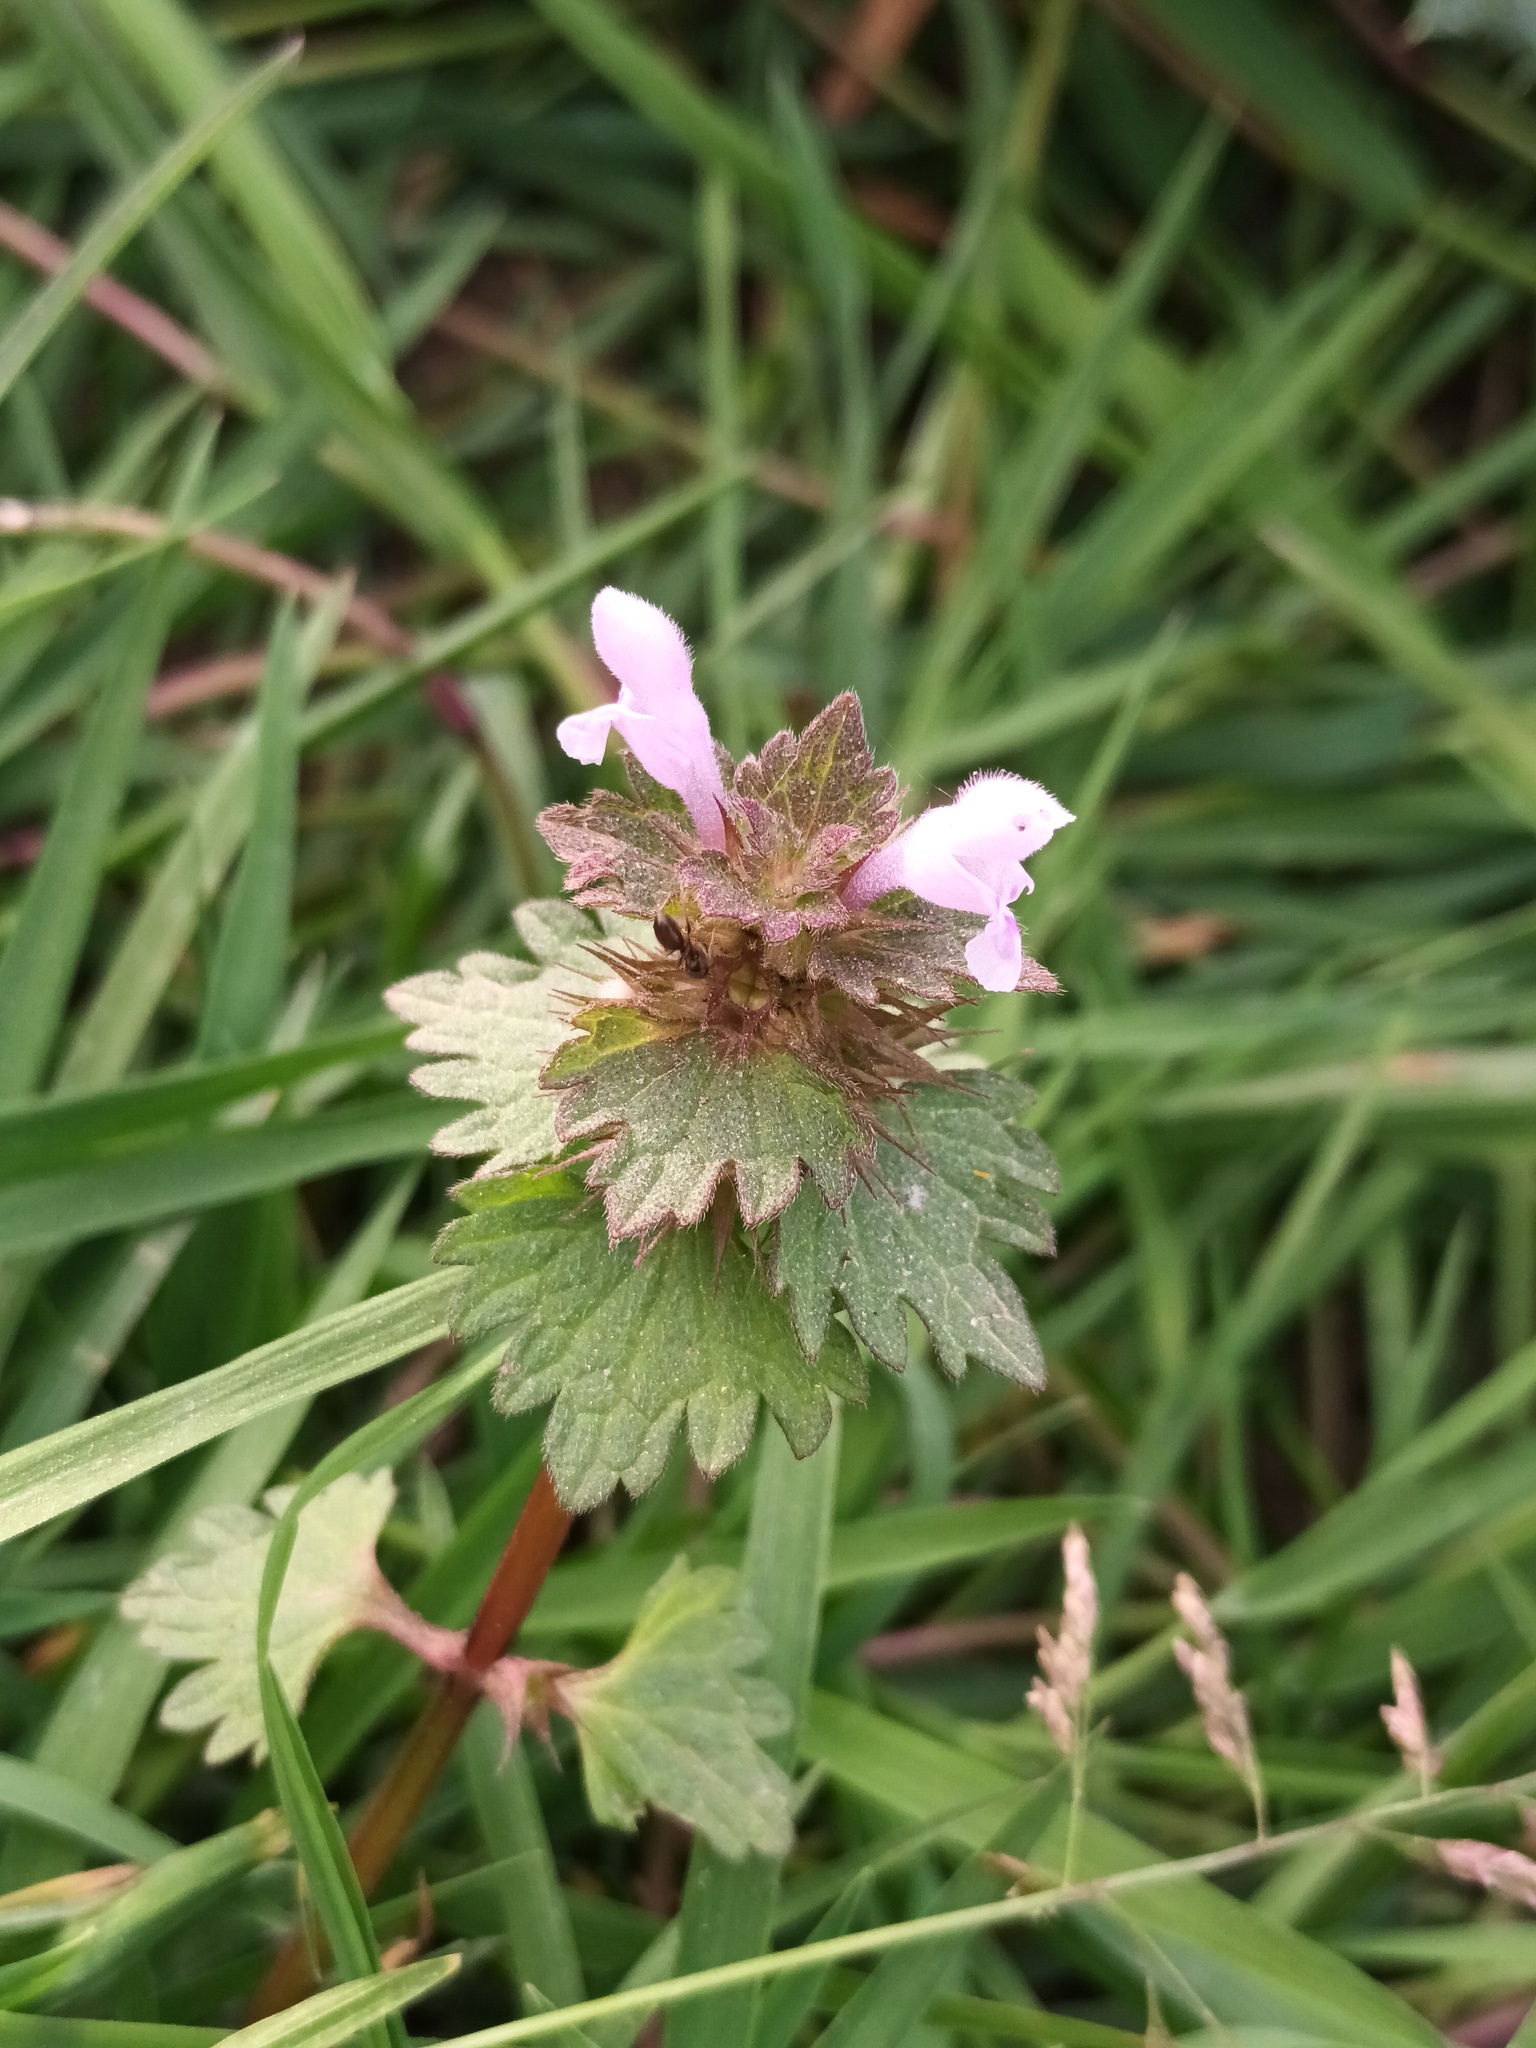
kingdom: Plantae
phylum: Tracheophyta
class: Magnoliopsida
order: Lamiales
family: Lamiaceae
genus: Lamium
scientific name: Lamium hybridum
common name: Cut-leaved dead-nettle
